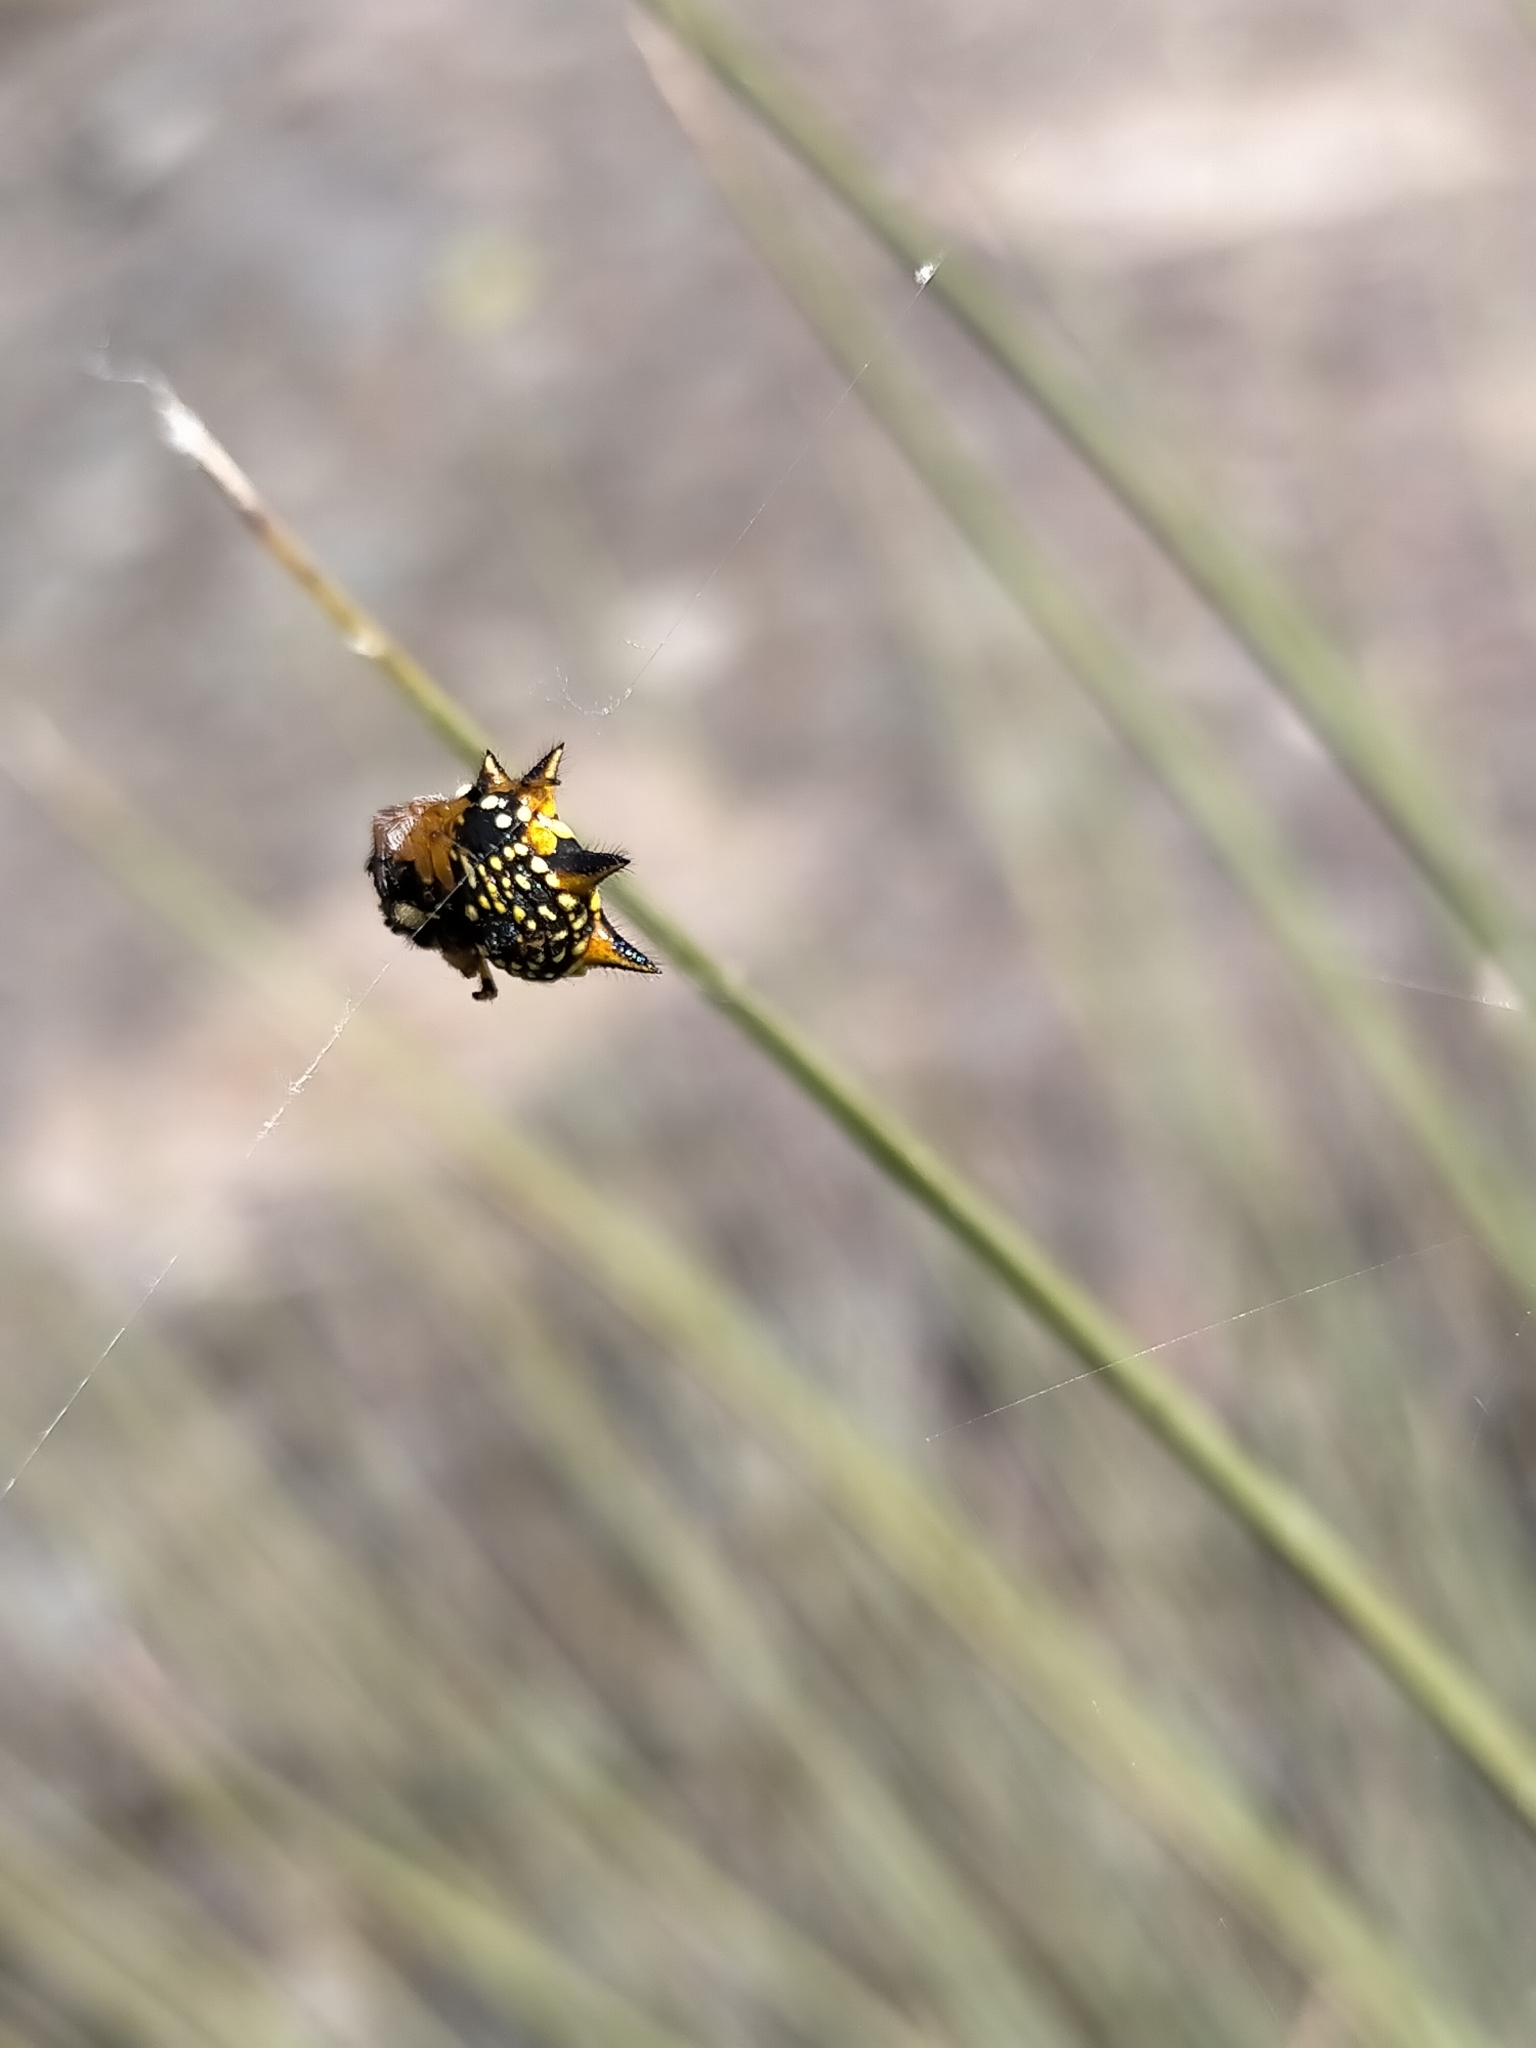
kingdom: Animalia
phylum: Arthropoda
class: Arachnida
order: Araneae
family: Araneidae
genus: Austracantha
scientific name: Austracantha minax
